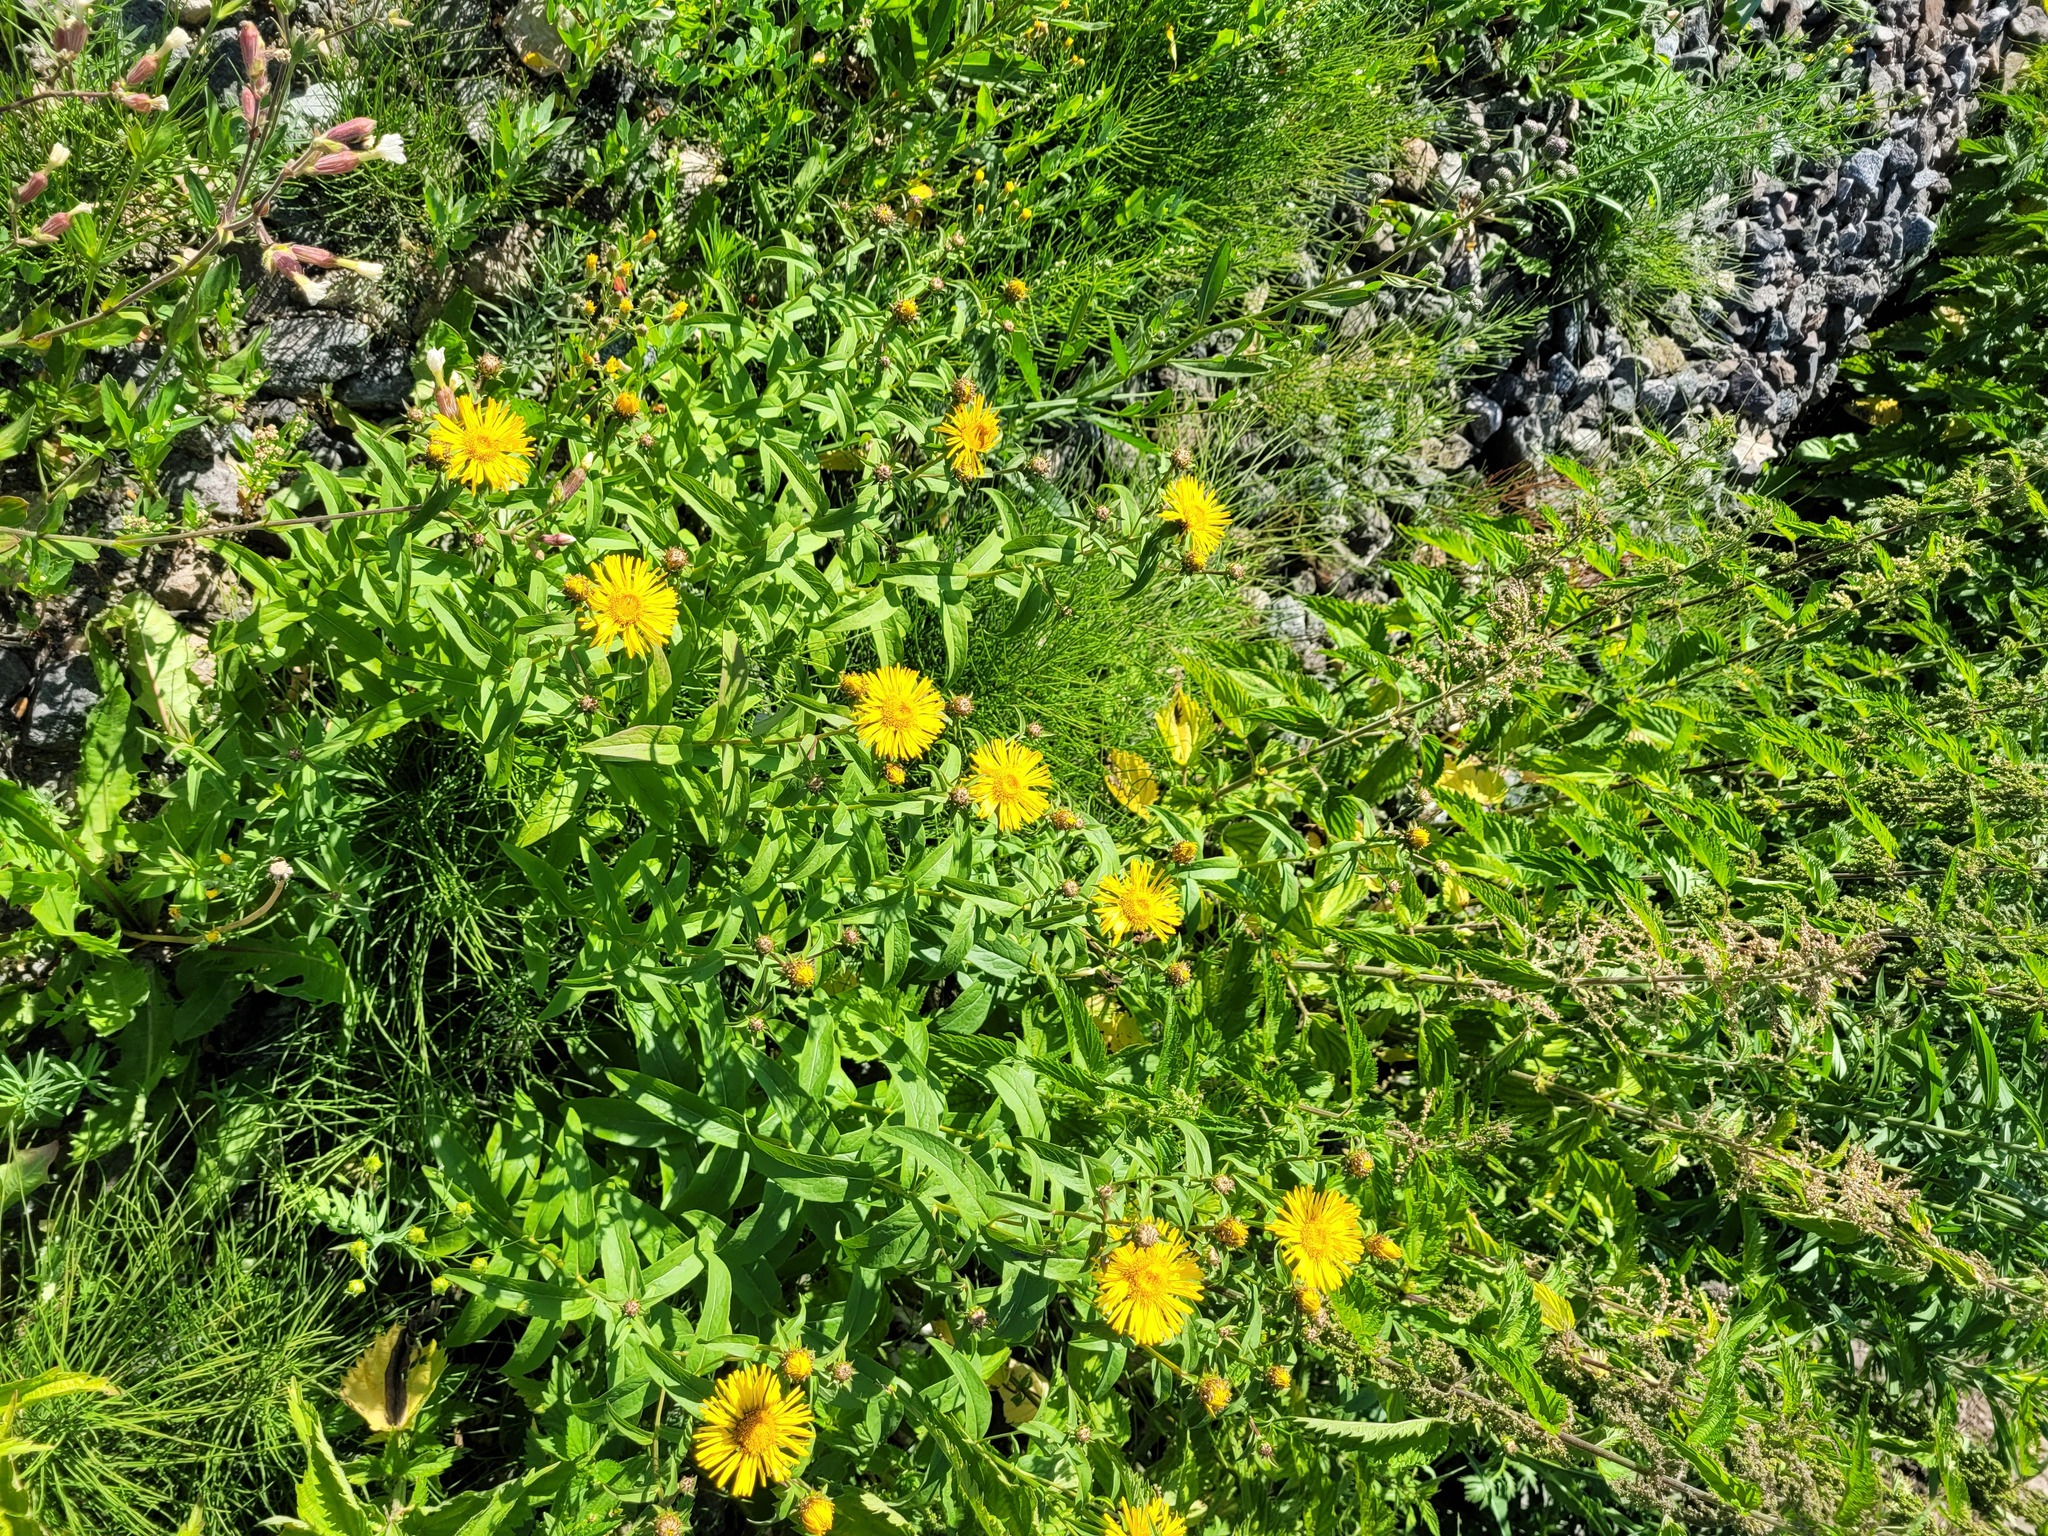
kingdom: Plantae
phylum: Tracheophyta
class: Magnoliopsida
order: Asterales
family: Asteraceae
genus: Pentanema
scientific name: Pentanema salicinum
